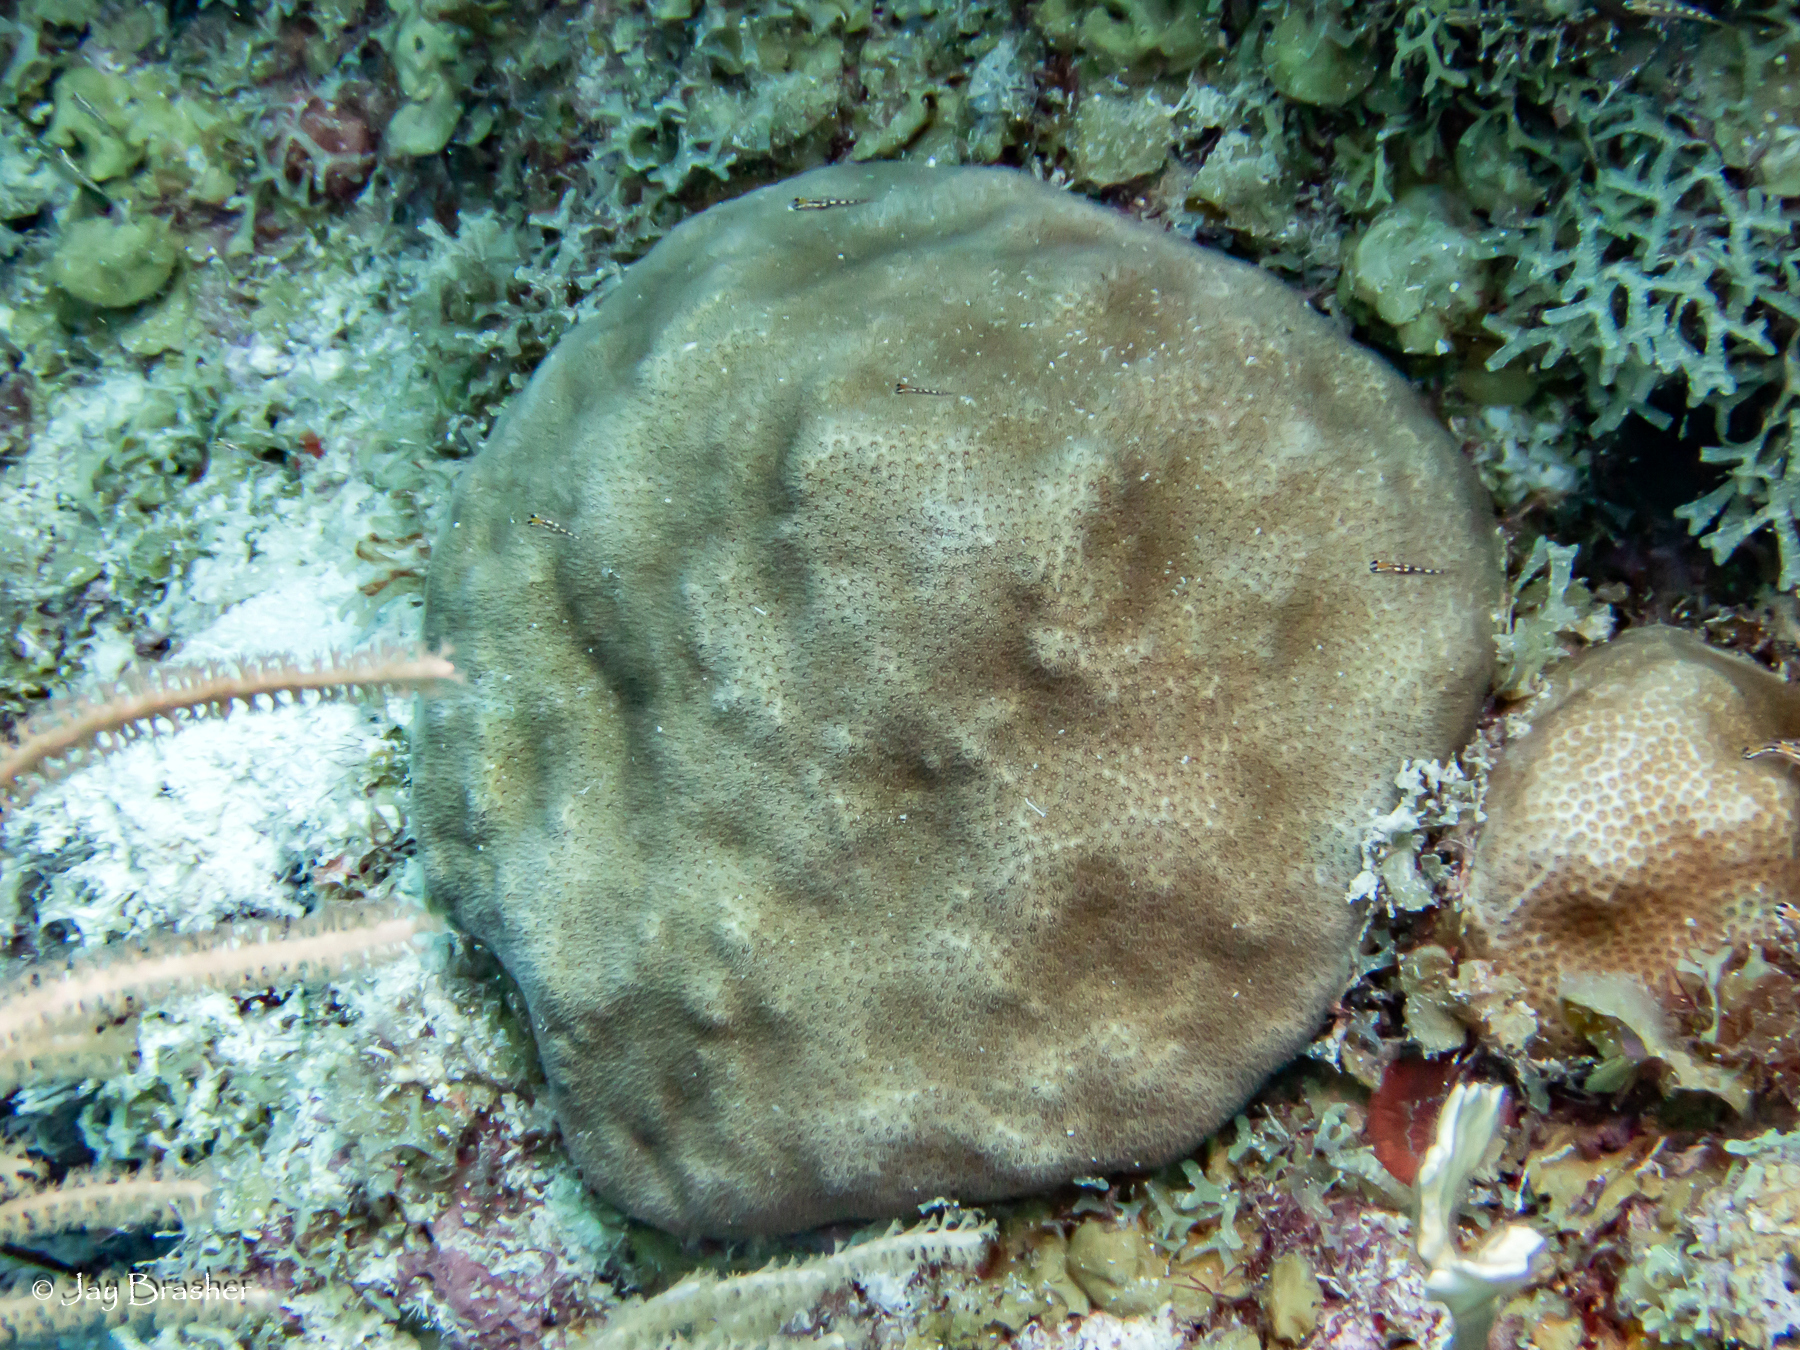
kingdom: Animalia
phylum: Cnidaria
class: Anthozoa
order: Scleractinia
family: Faviidae
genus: Solenastrea
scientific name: Solenastrea bournoni
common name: Smooth star coral
